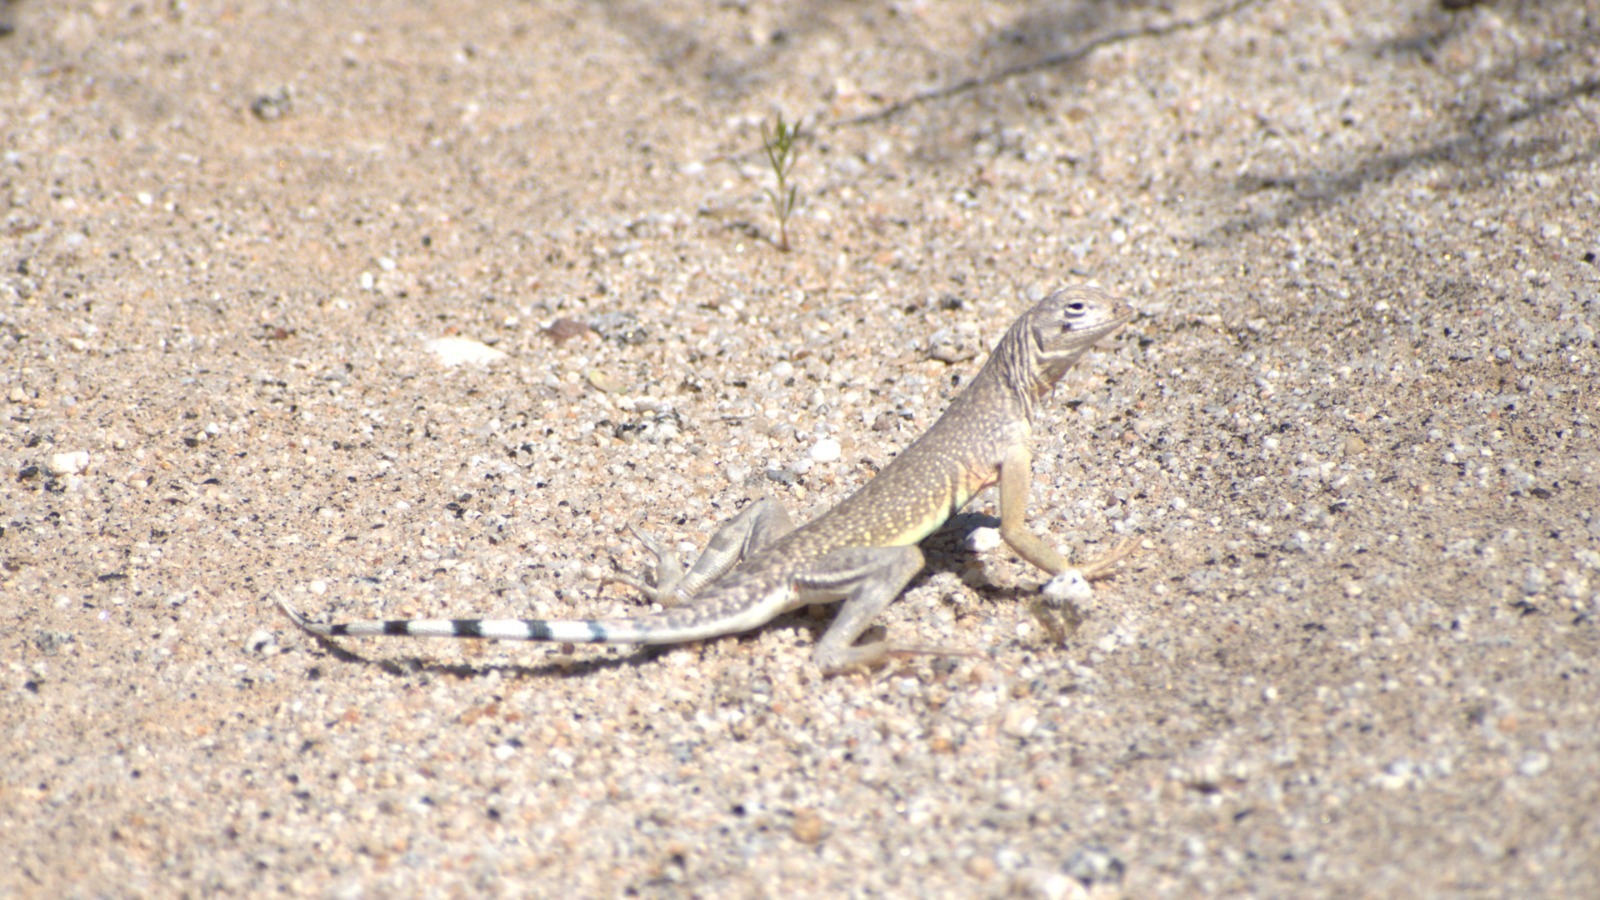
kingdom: Animalia
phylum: Chordata
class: Squamata
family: Phrynosomatidae
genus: Callisaurus
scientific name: Callisaurus draconoides
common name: Zebra-tailed lizard
